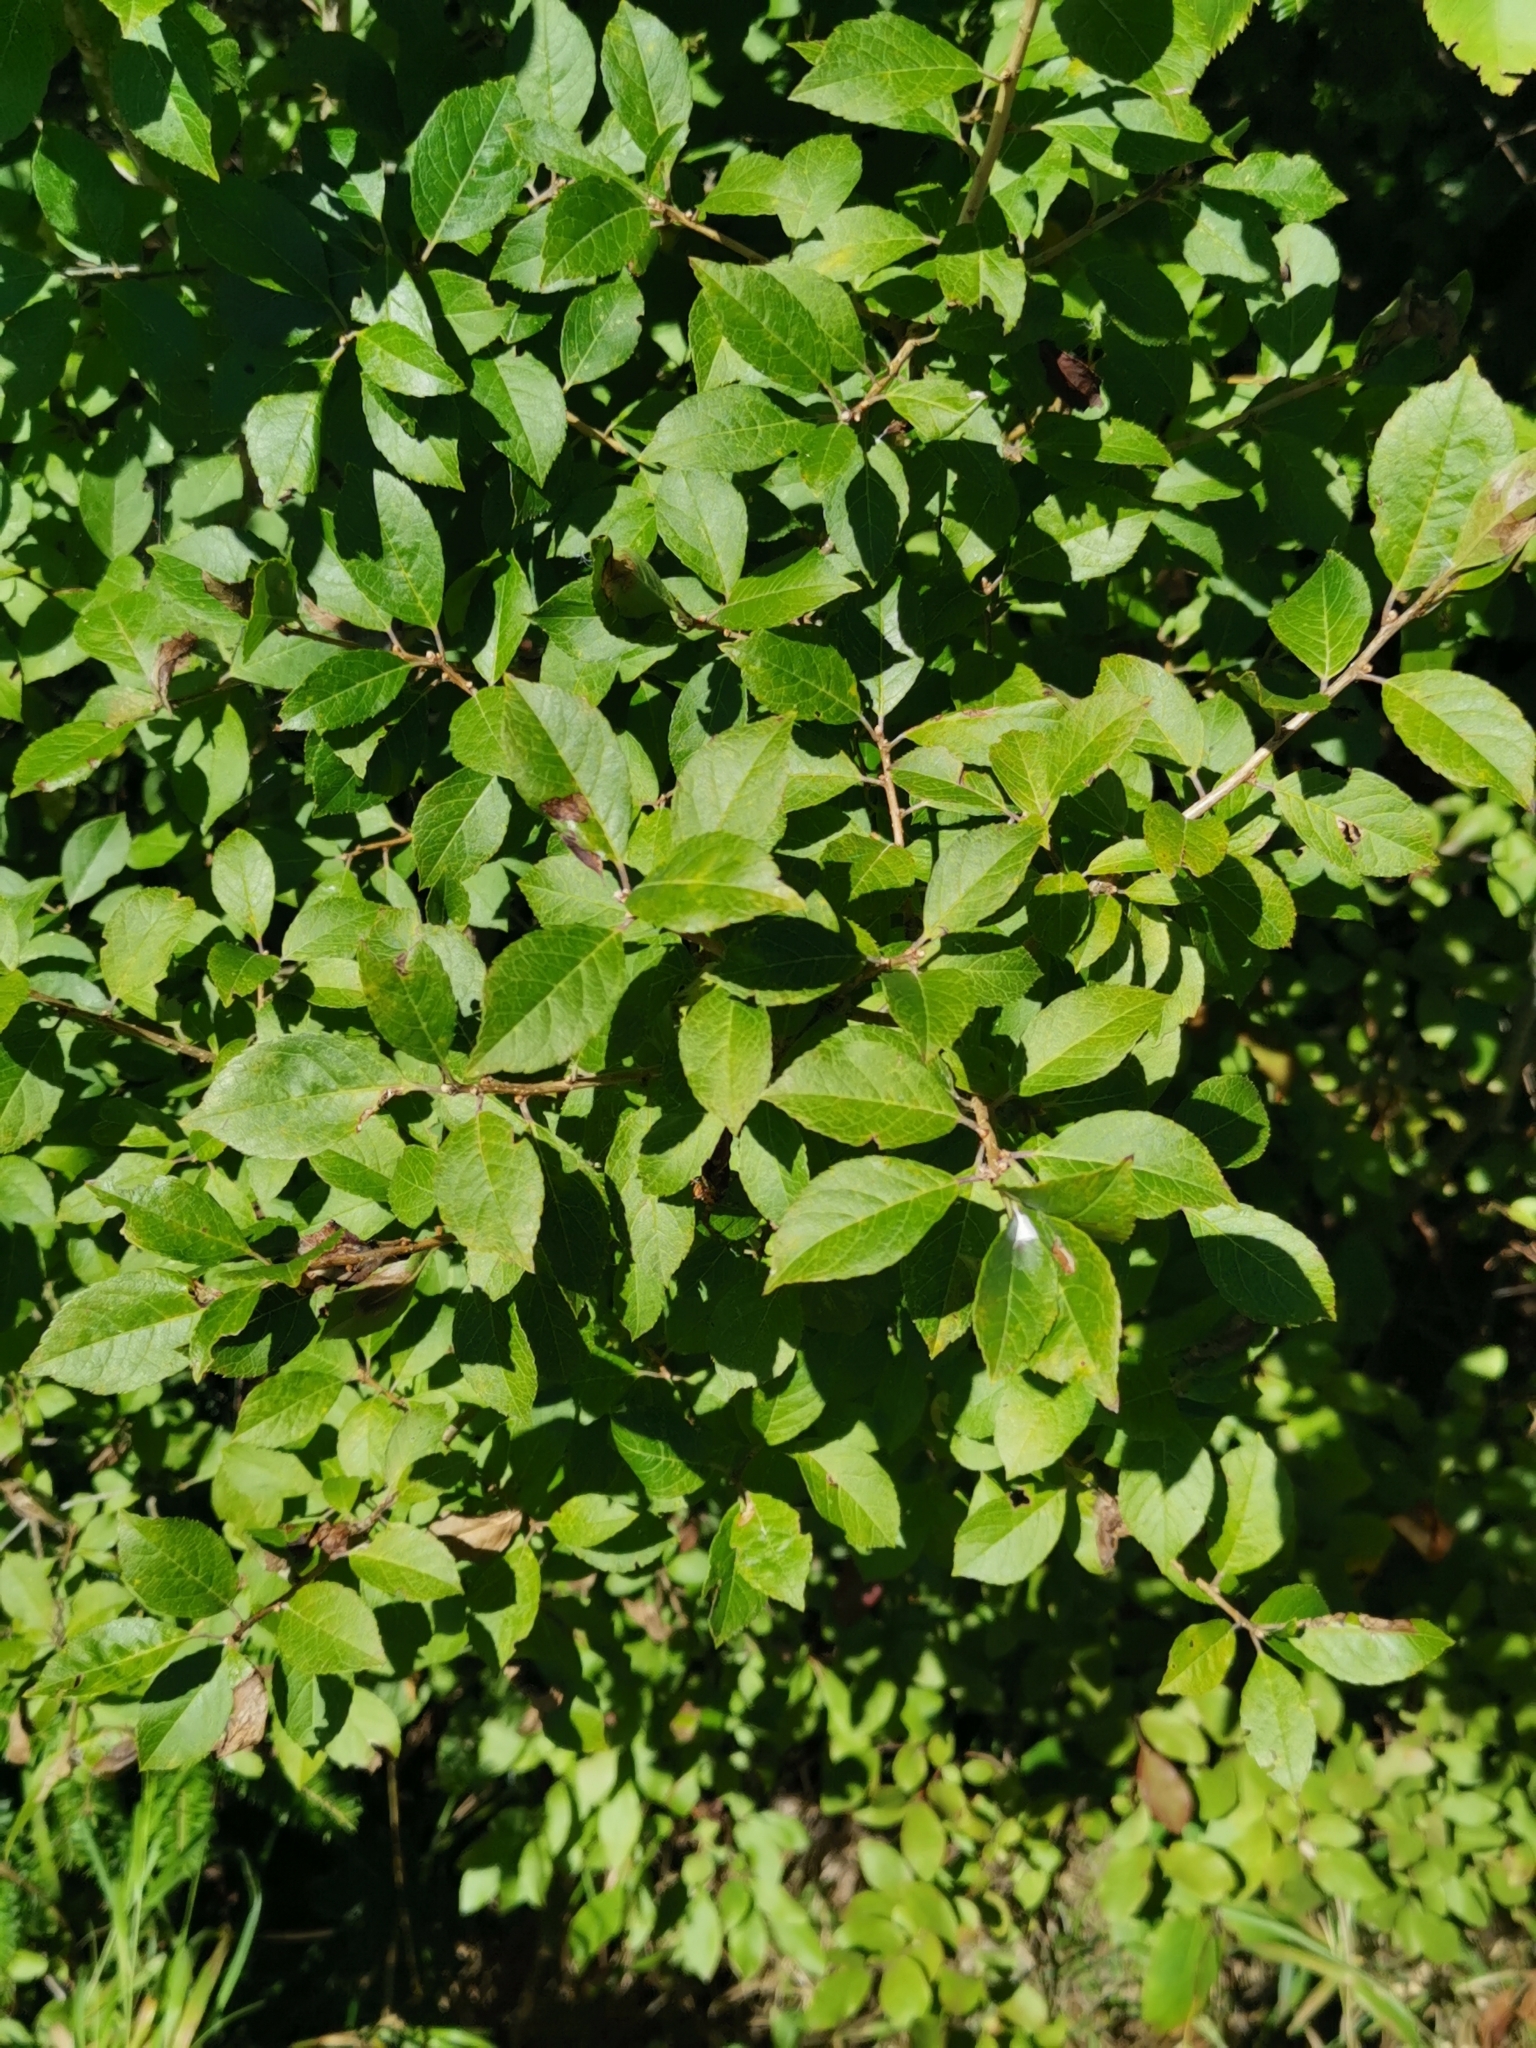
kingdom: Plantae
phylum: Tracheophyta
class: Magnoliopsida
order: Aquifoliales
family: Aquifoliaceae
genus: Ilex
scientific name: Ilex verticillata
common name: Virginia winterberry
